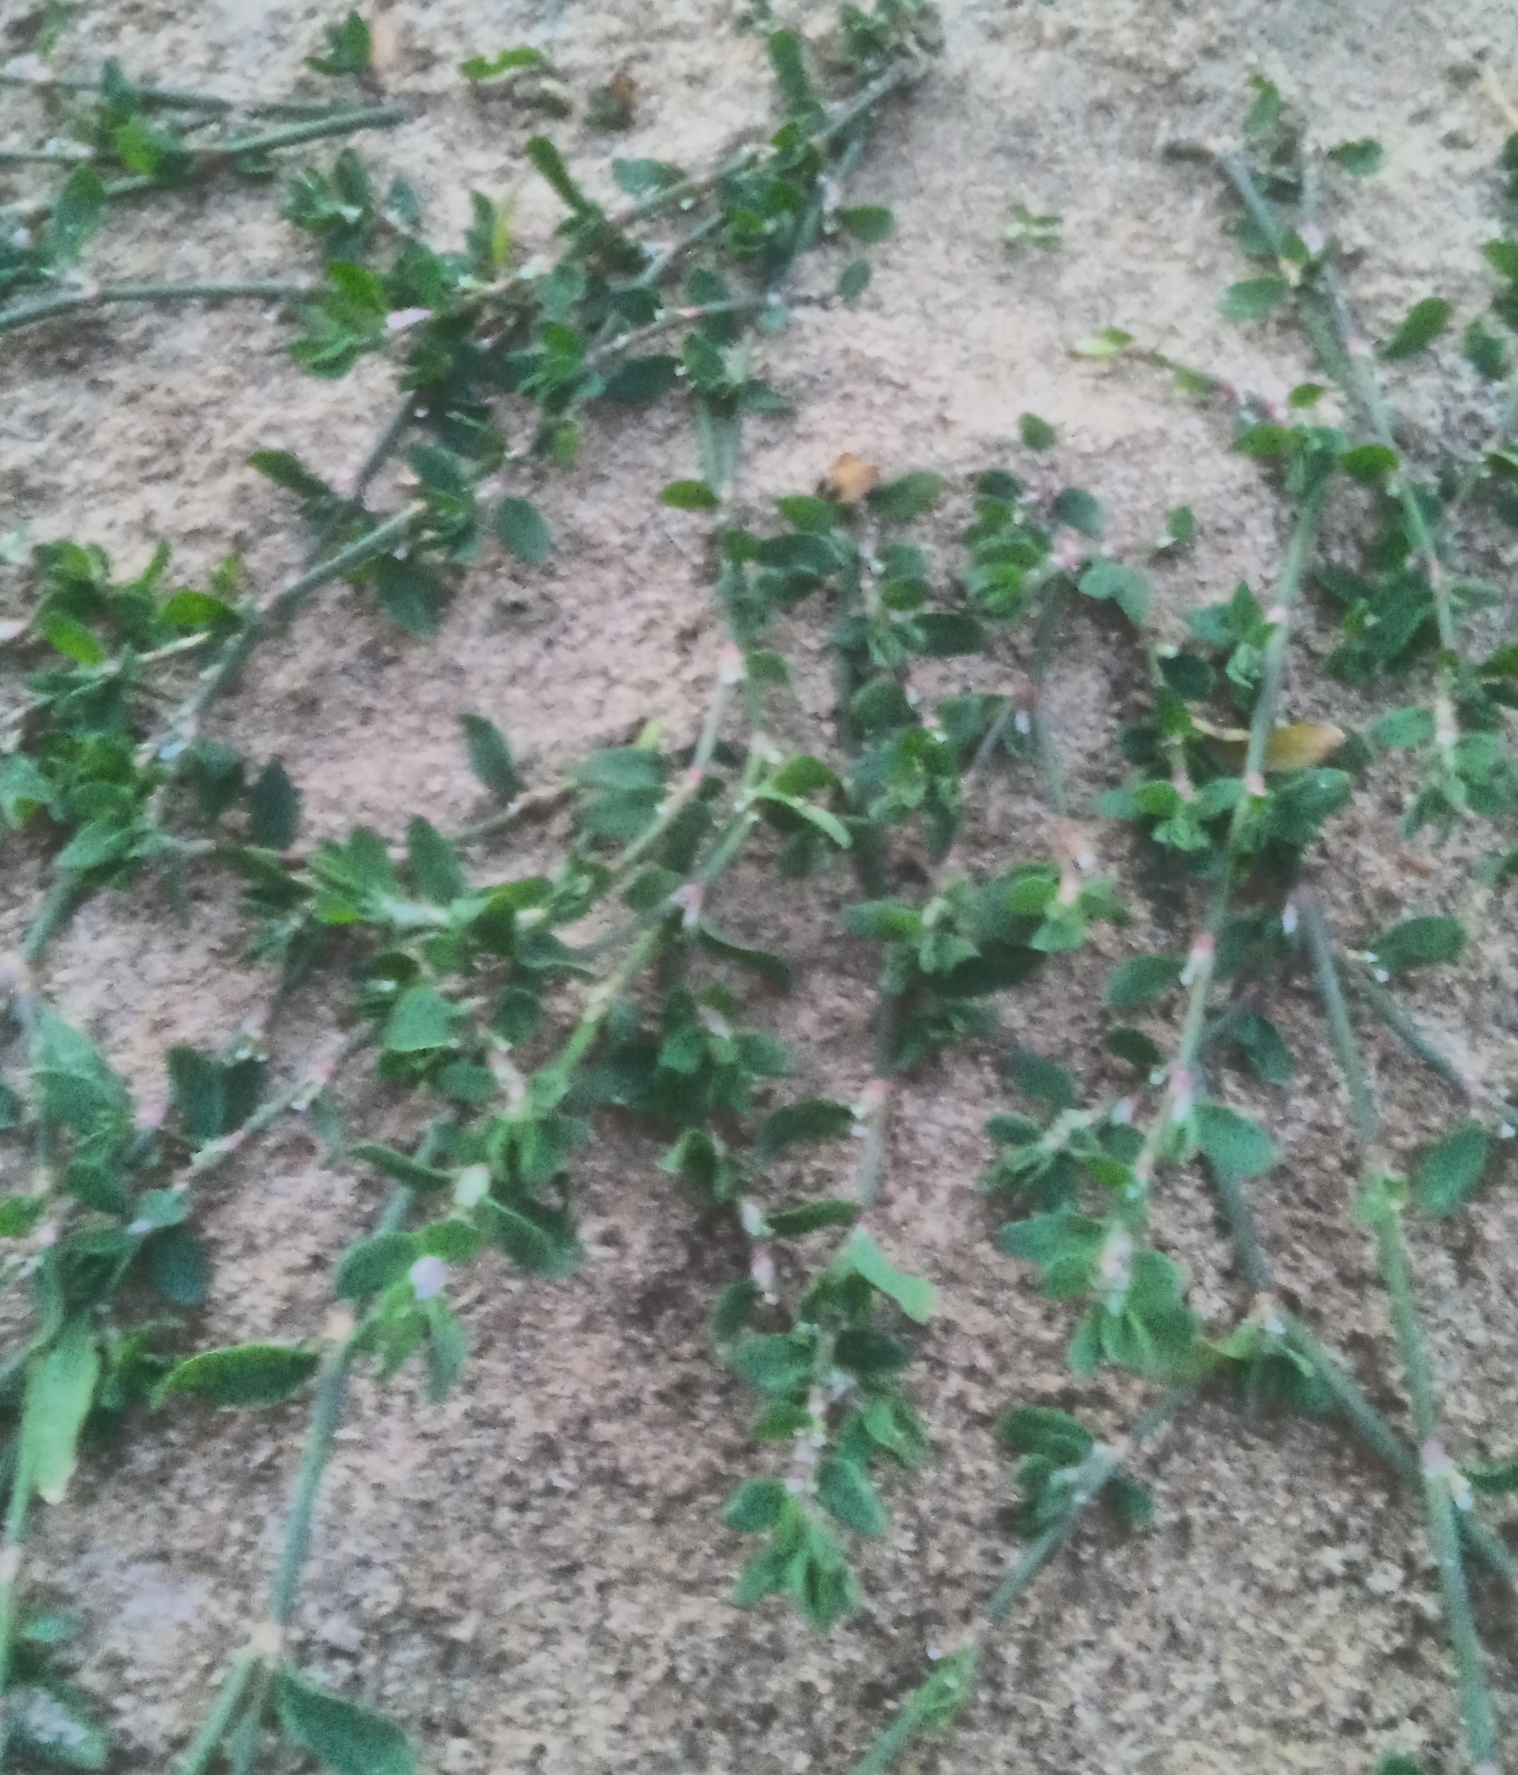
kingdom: Plantae
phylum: Tracheophyta
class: Magnoliopsida
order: Caryophyllales
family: Polygonaceae
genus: Polygonum
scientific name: Polygonum
